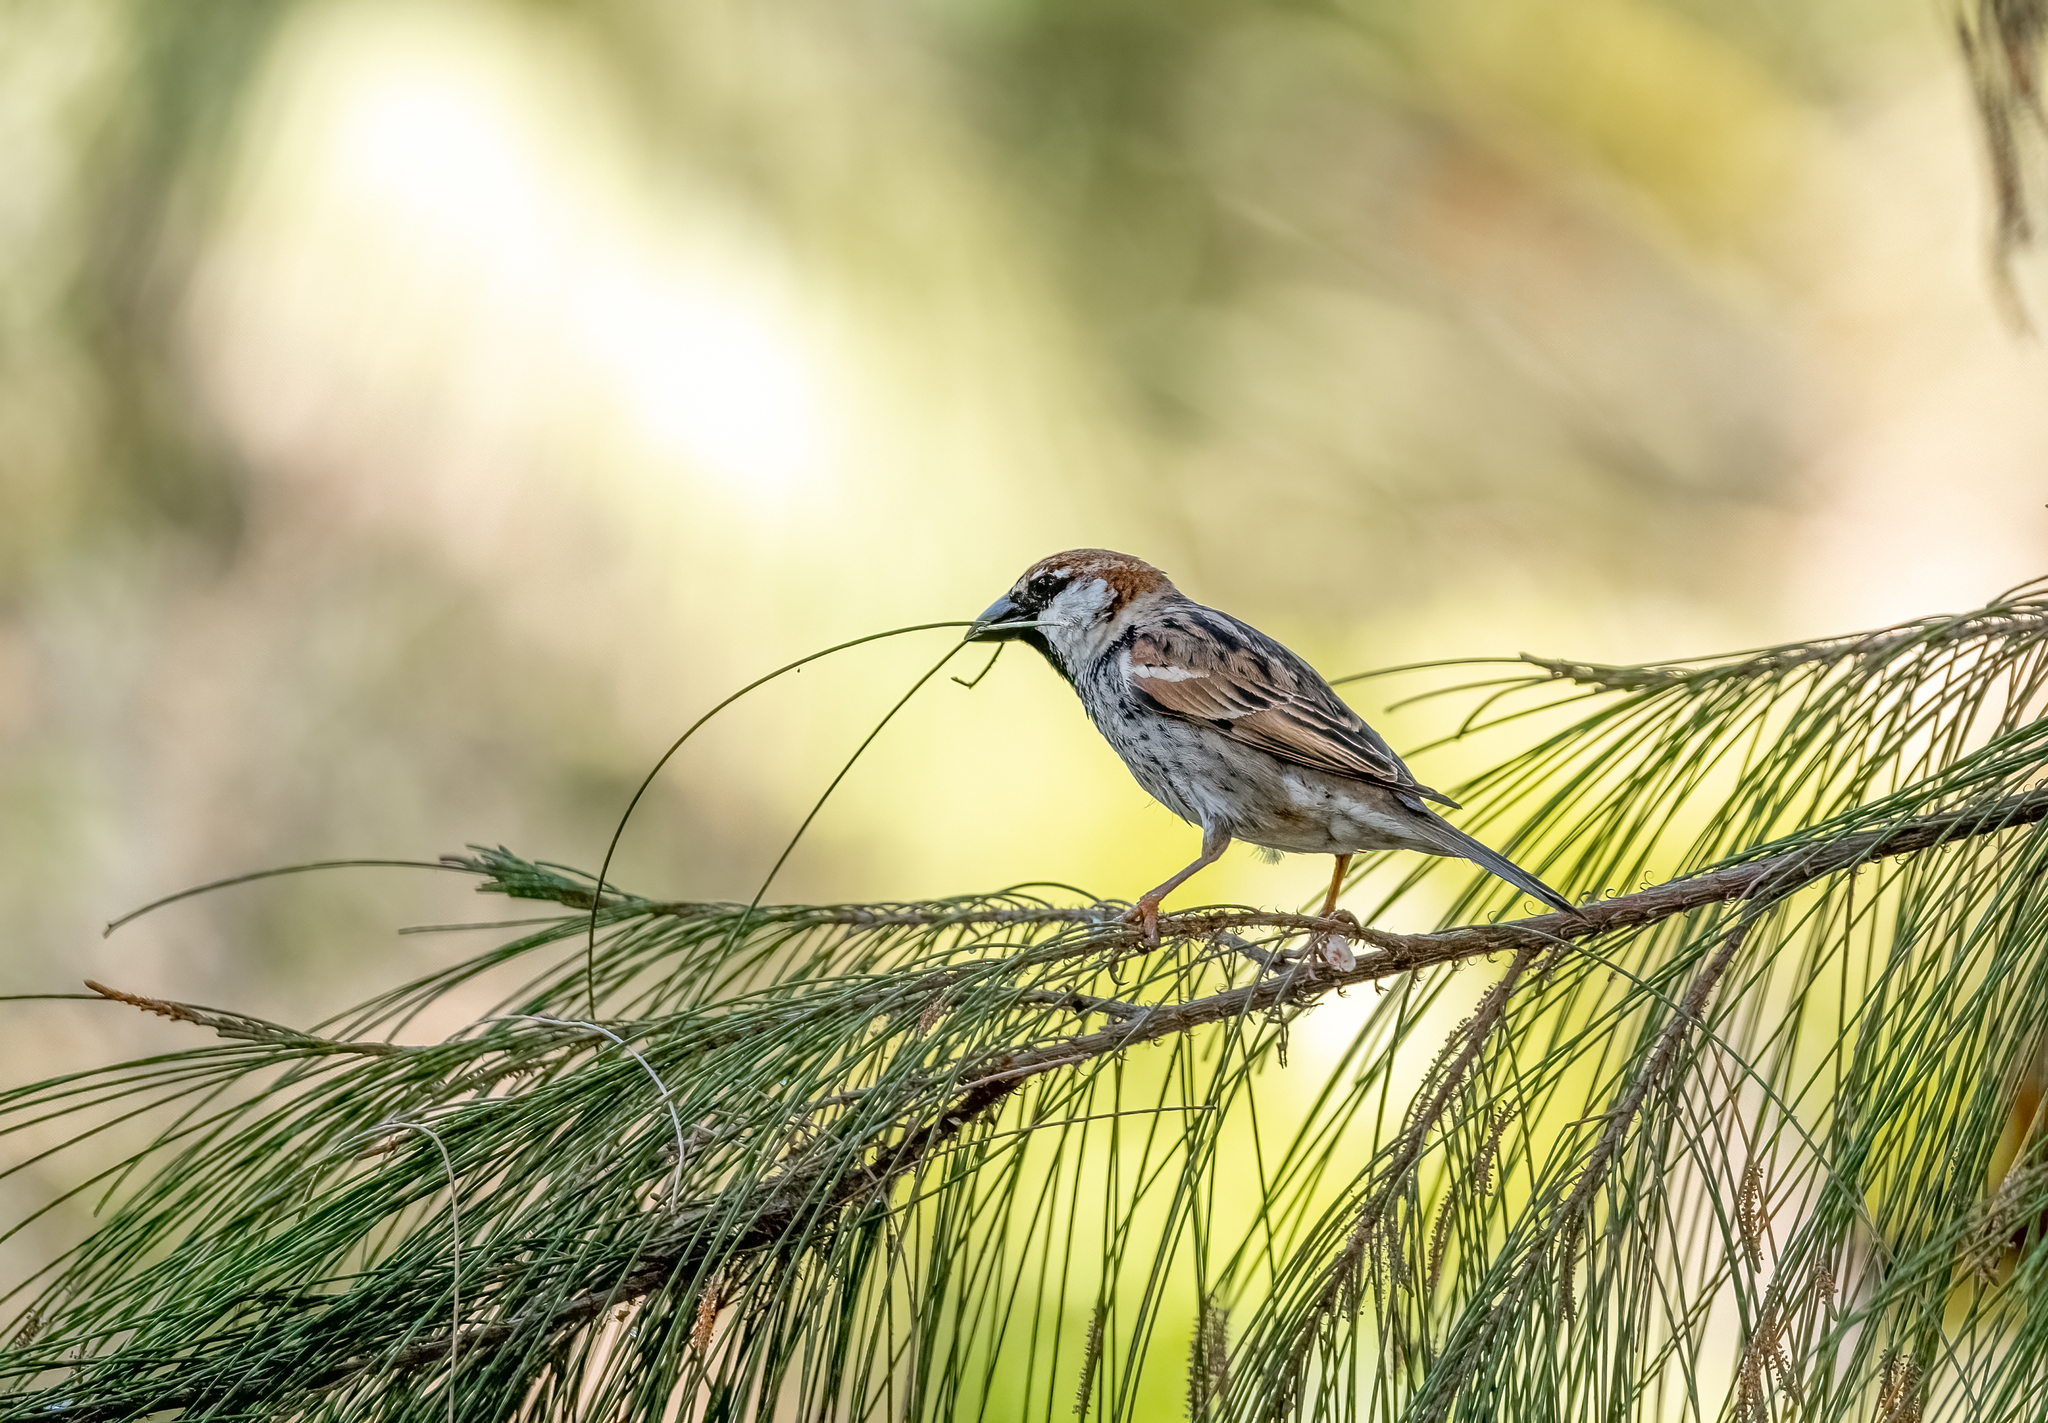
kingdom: Animalia
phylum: Chordata
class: Aves
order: Passeriformes
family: Passeridae
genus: Passer
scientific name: Passer hispaniolensis
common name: Spanish sparrow
